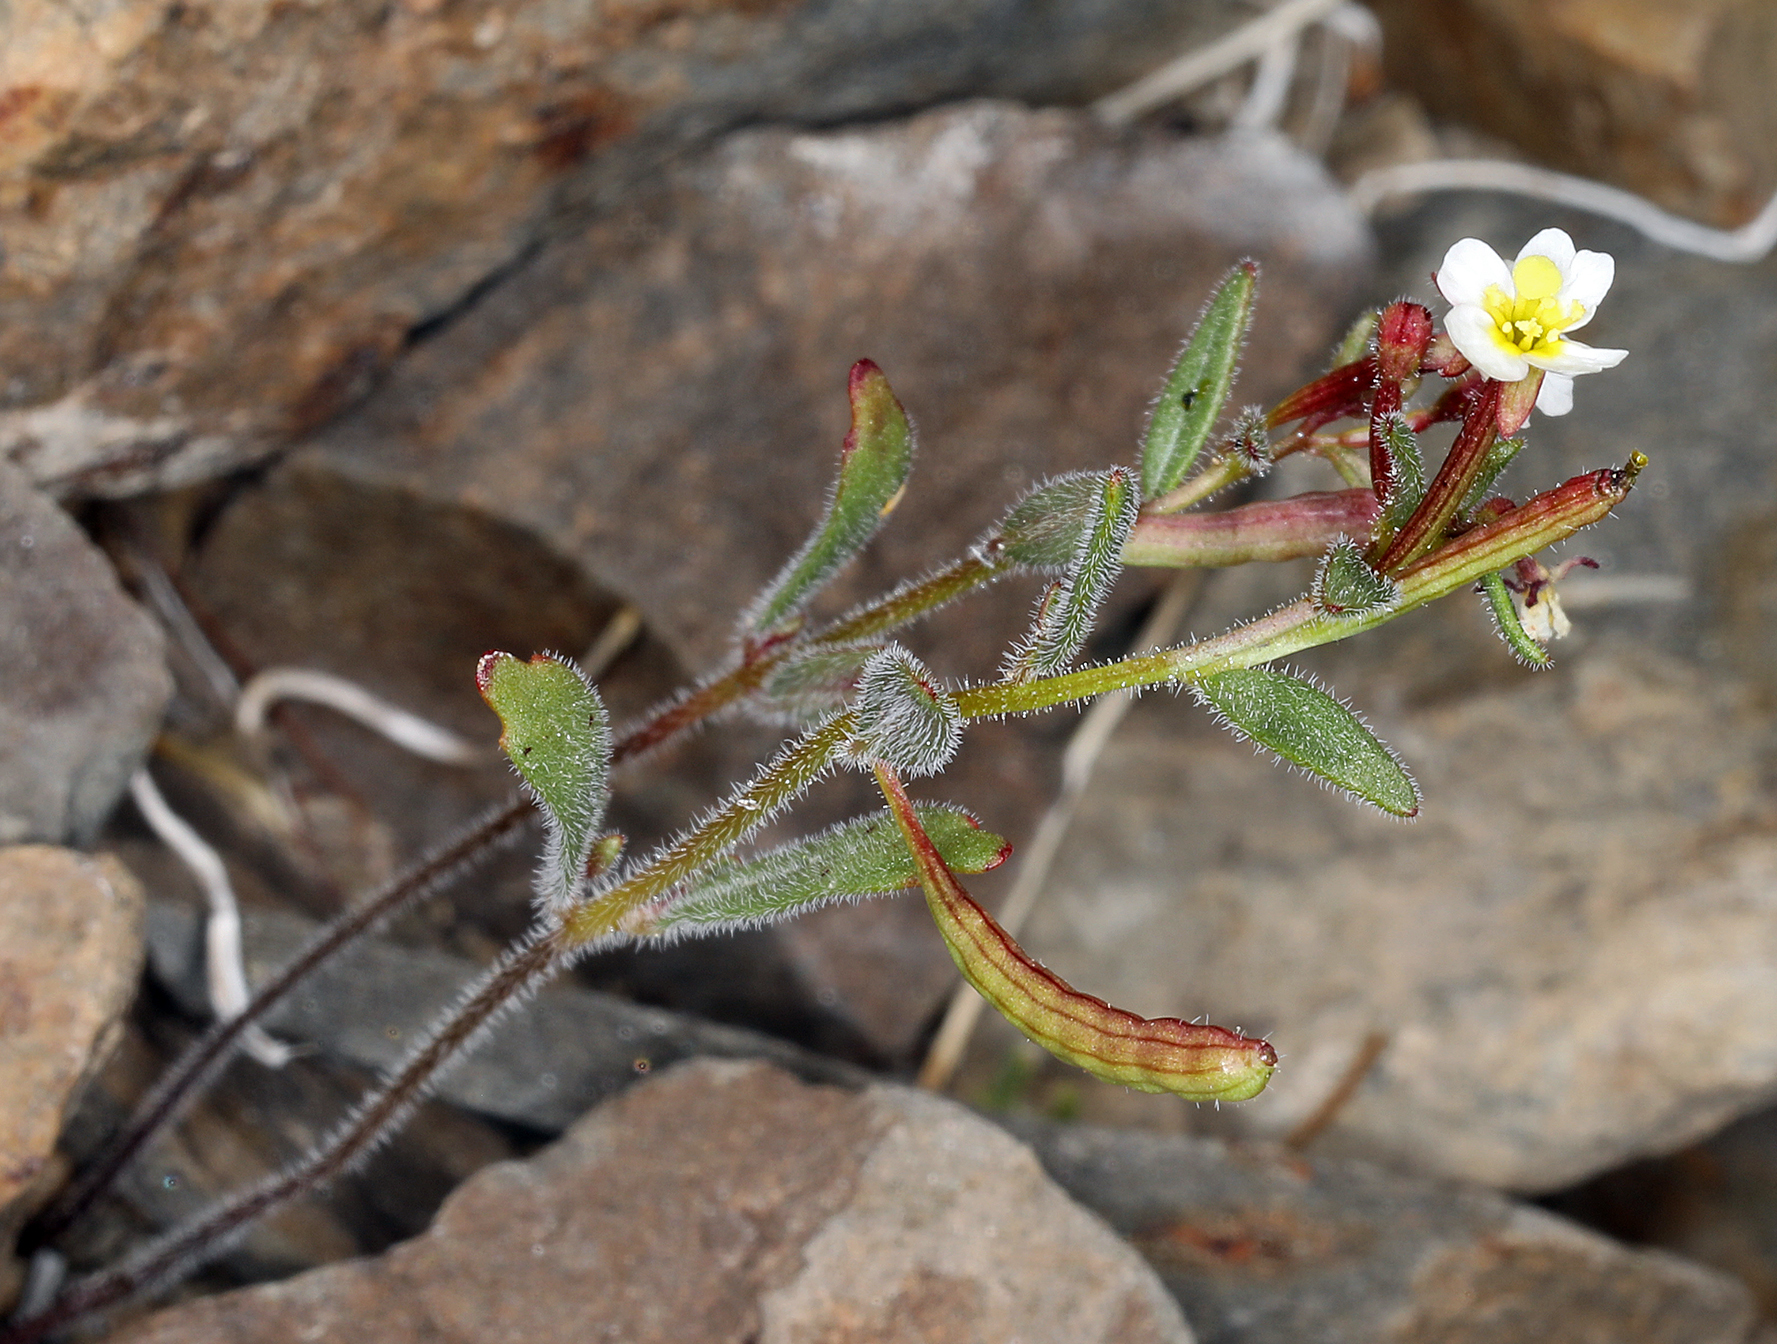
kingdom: Plantae
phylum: Tracheophyta
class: Magnoliopsida
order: Myrtales
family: Onagraceae
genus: Chylismiella
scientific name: Chylismiella pterosperma
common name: Wingfruit suncup
